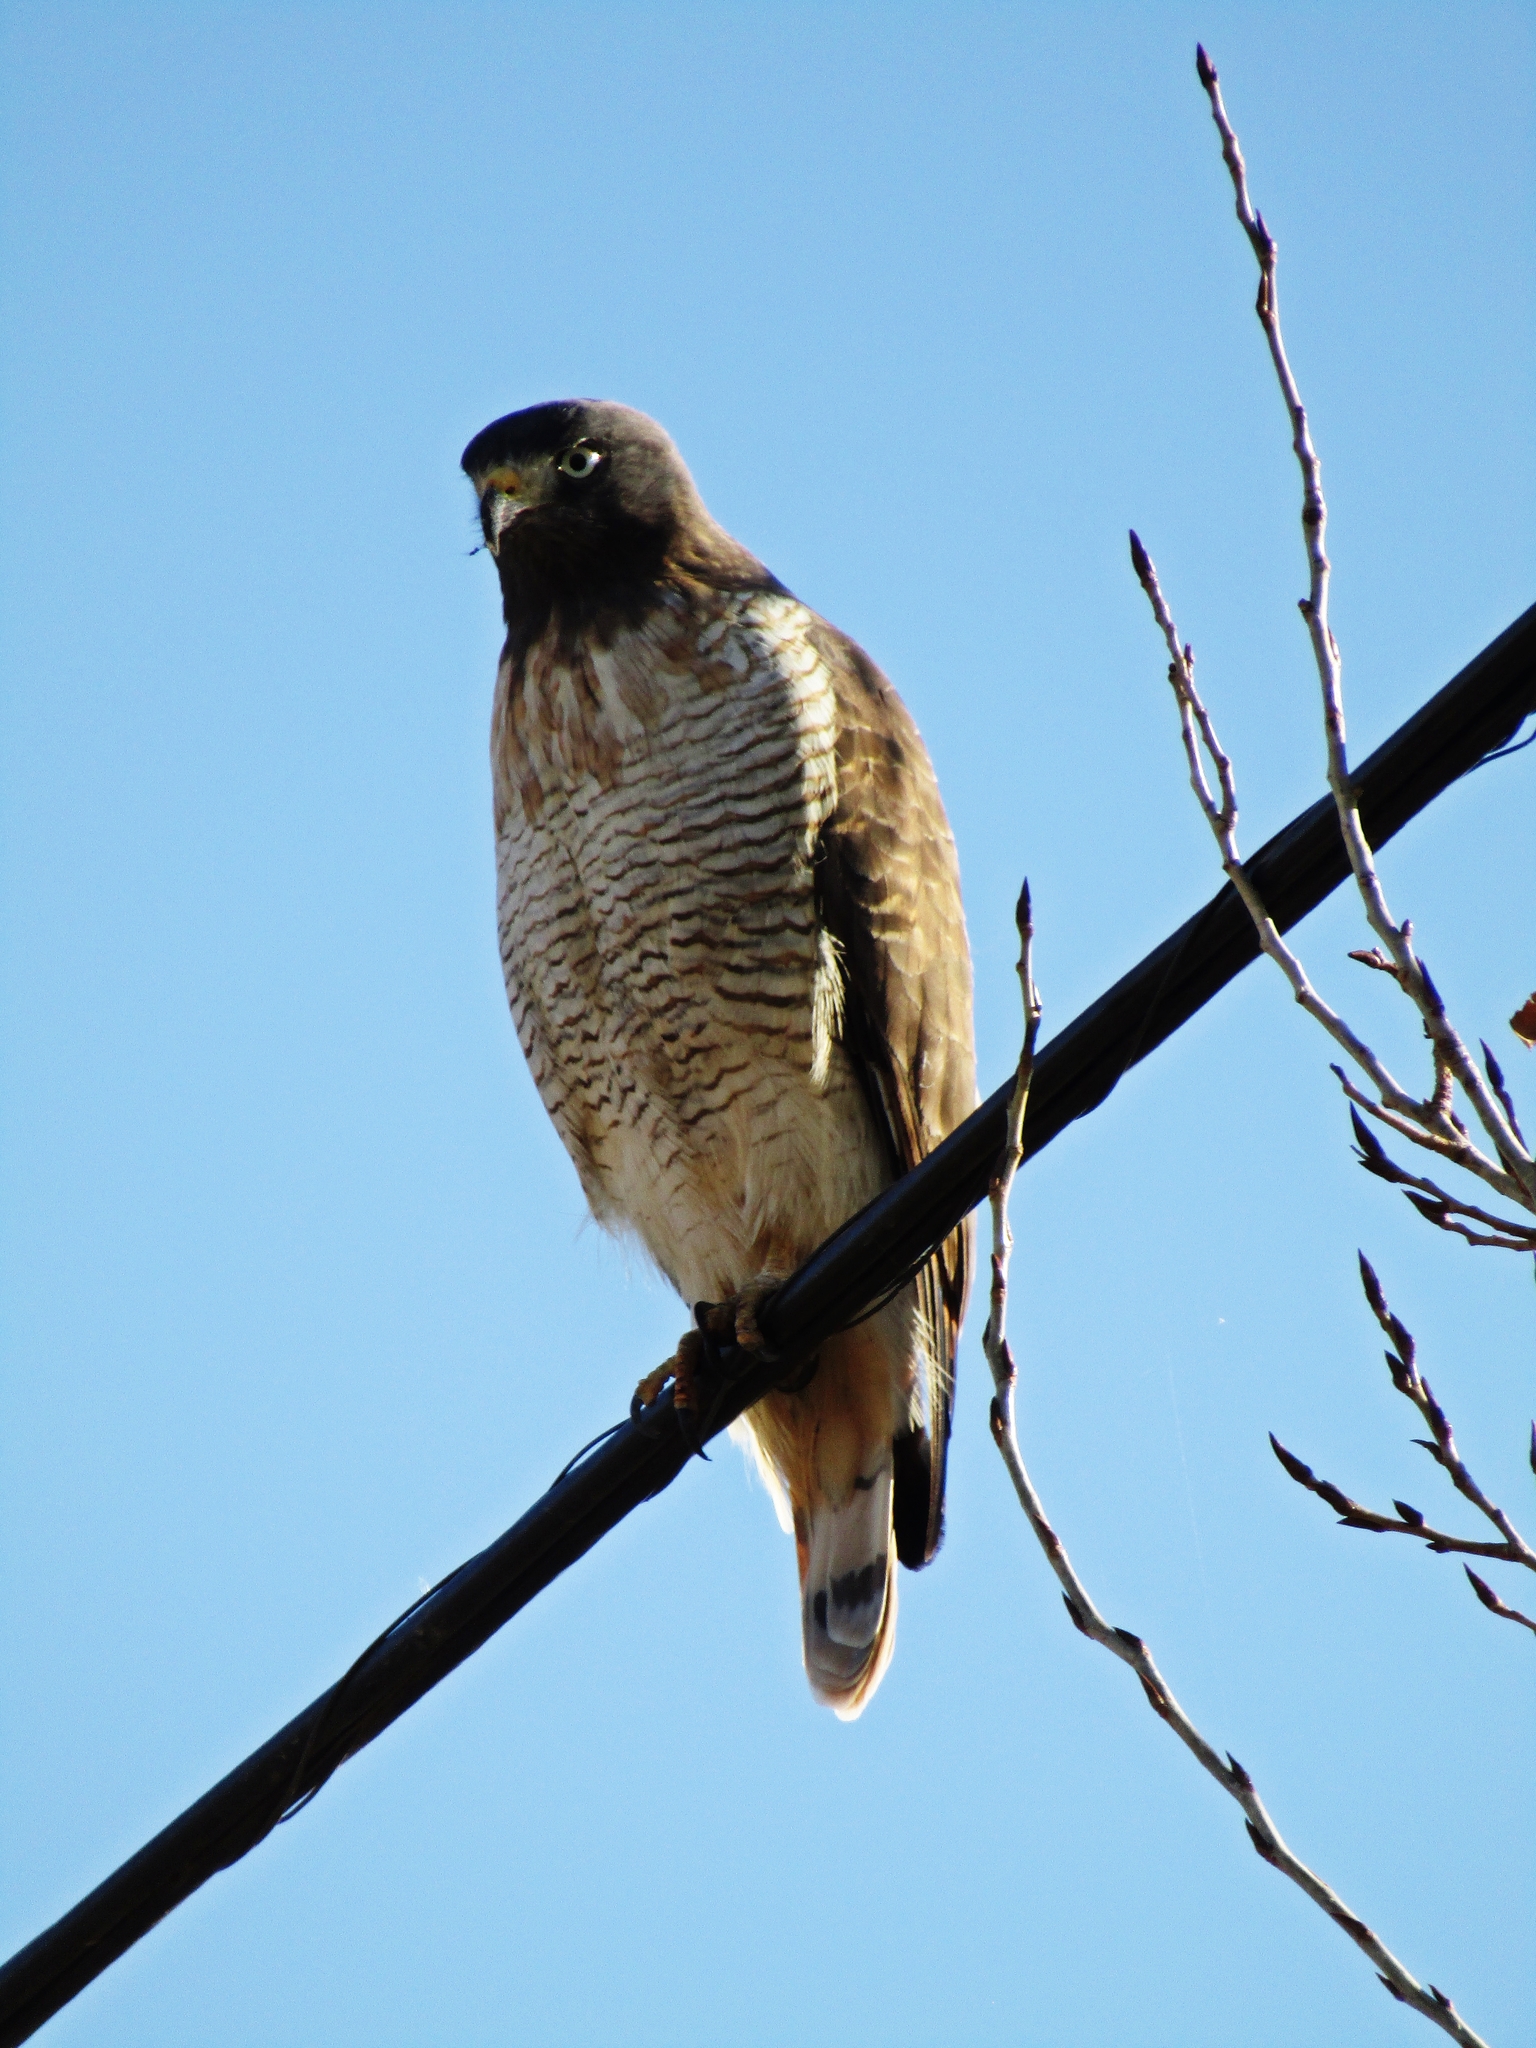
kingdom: Animalia
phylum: Chordata
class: Aves
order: Accipitriformes
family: Accipitridae
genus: Rupornis
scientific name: Rupornis magnirostris
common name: Roadside hawk
